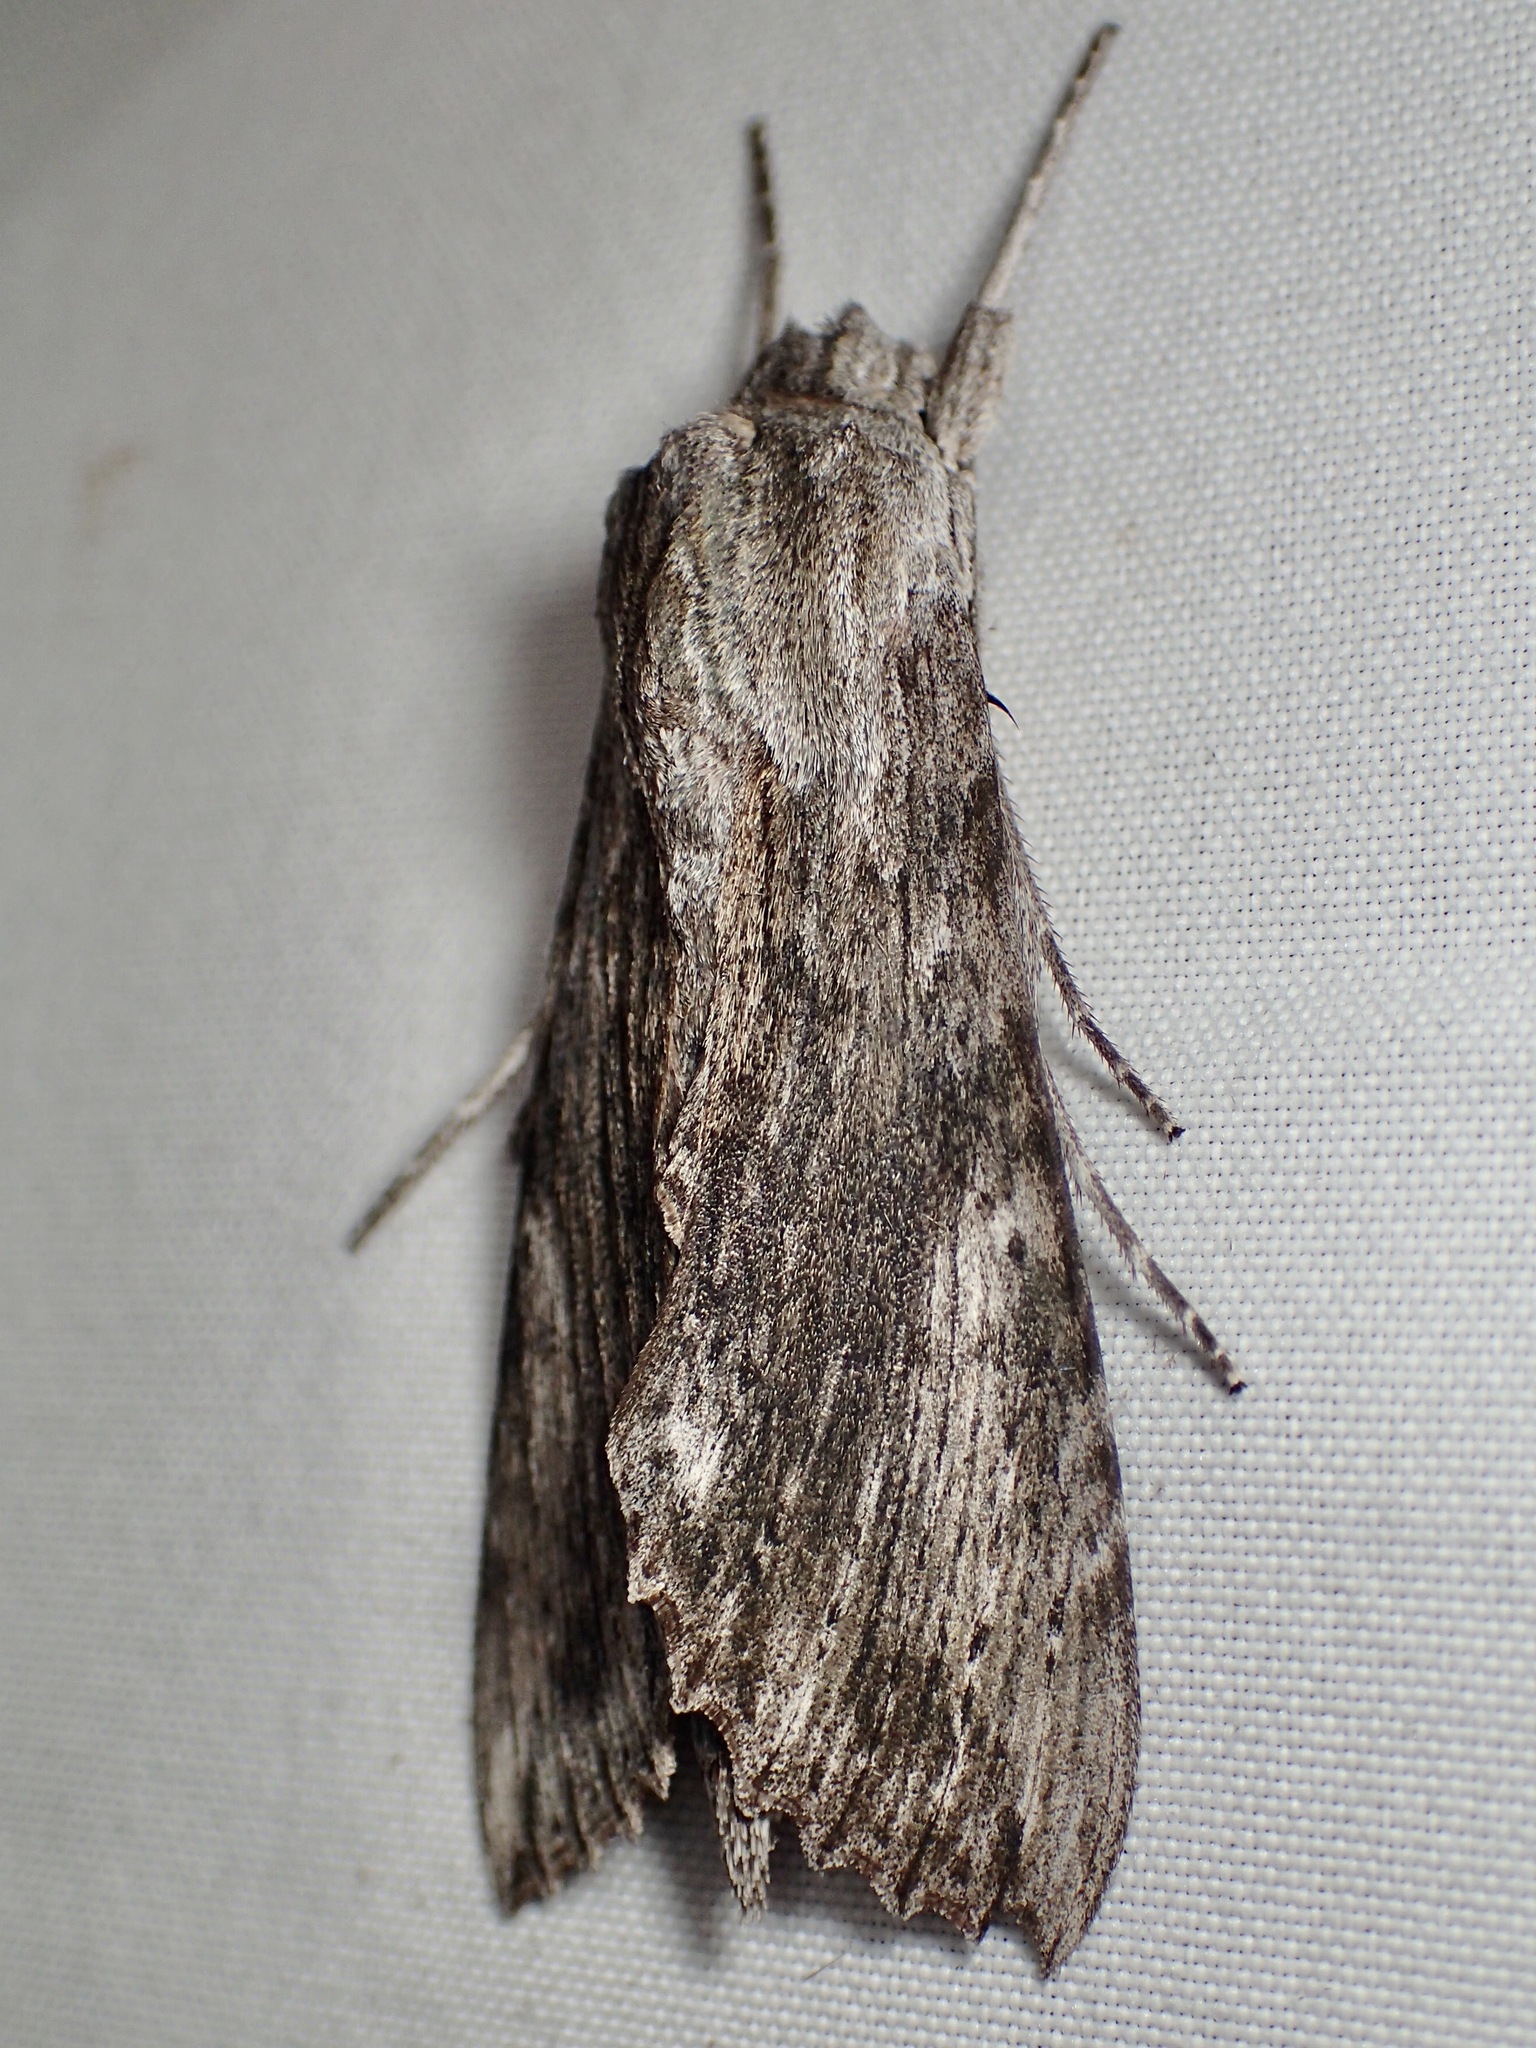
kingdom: Animalia
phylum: Arthropoda
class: Insecta
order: Lepidoptera
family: Sphingidae
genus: Erinnyis
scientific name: Erinnyis obscura
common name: Obscure sphinx
